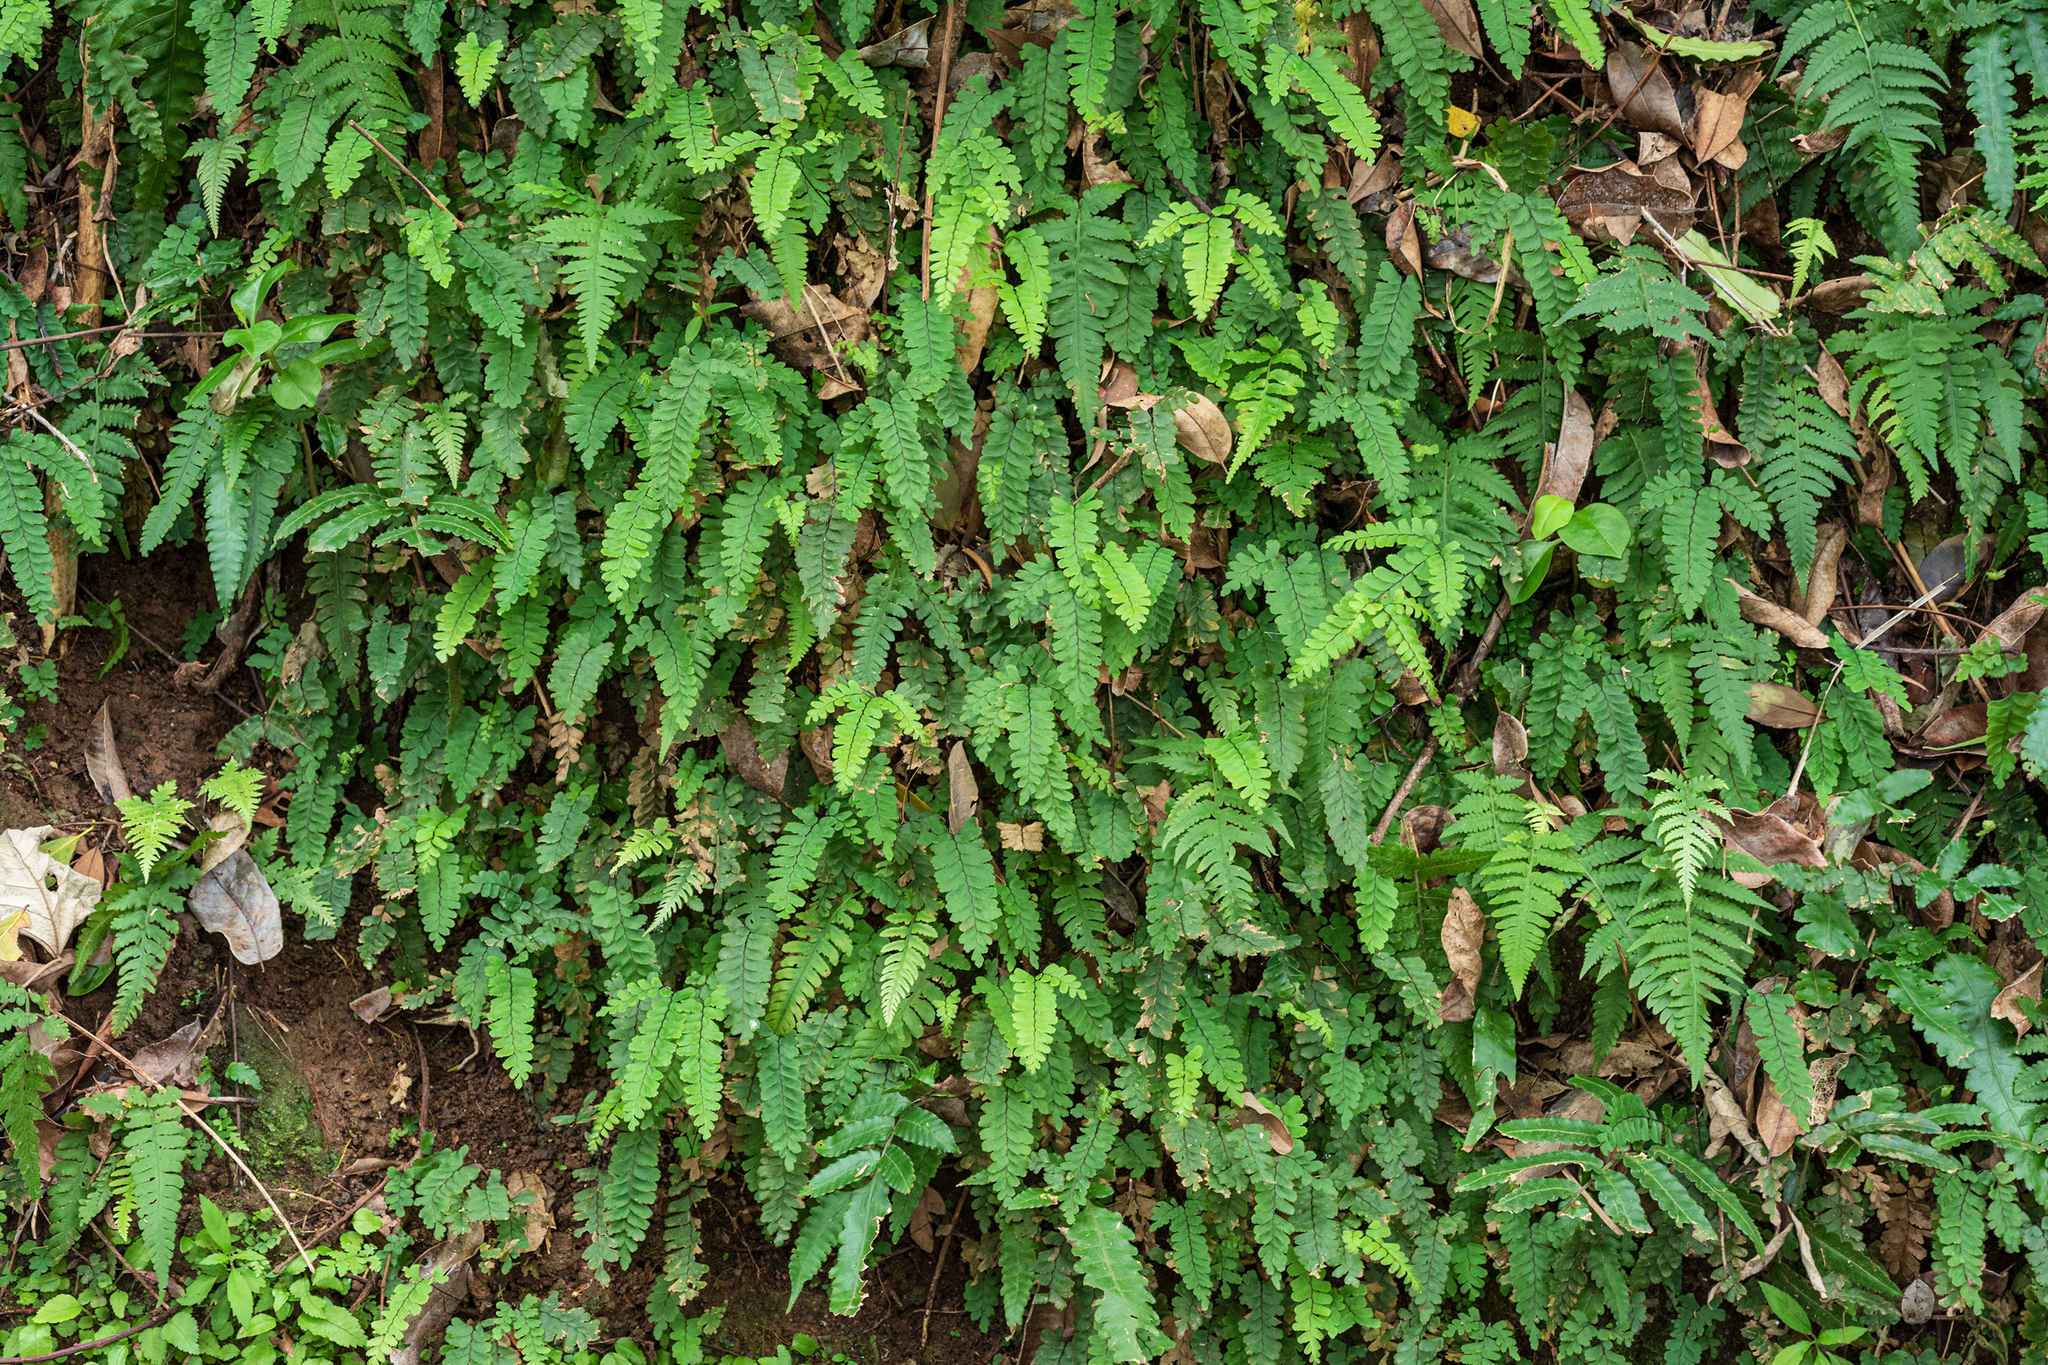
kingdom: Plantae
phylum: Tracheophyta
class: Polypodiopsida
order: Polypodiales
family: Pteridaceae
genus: Adiantum
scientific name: Adiantum diaphanum
